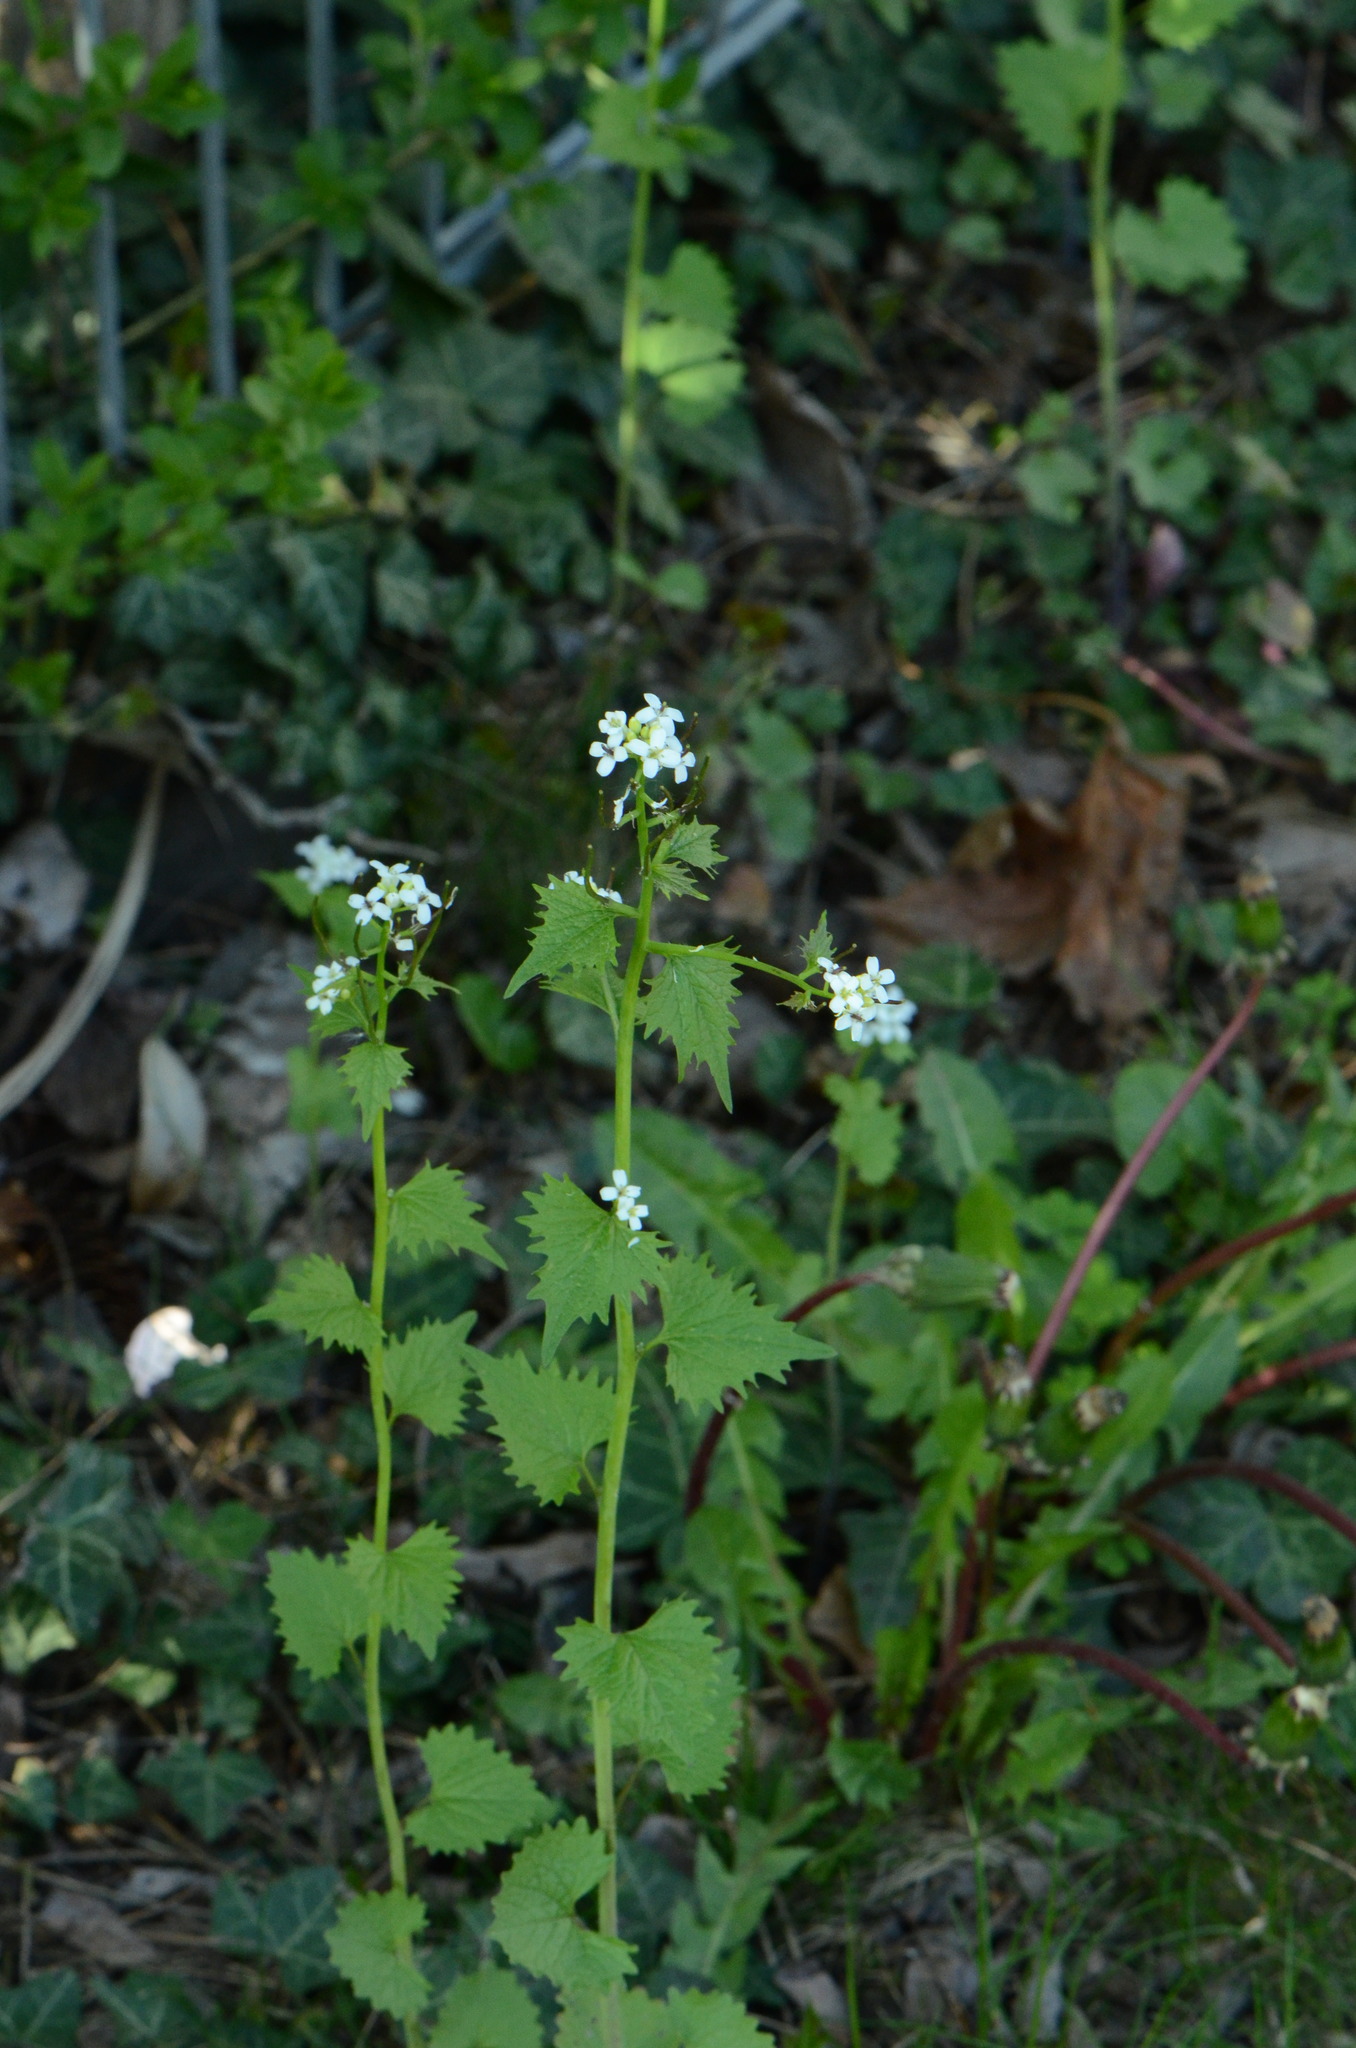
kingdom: Plantae
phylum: Tracheophyta
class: Magnoliopsida
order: Brassicales
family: Brassicaceae
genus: Alliaria
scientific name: Alliaria petiolata
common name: Garlic mustard
